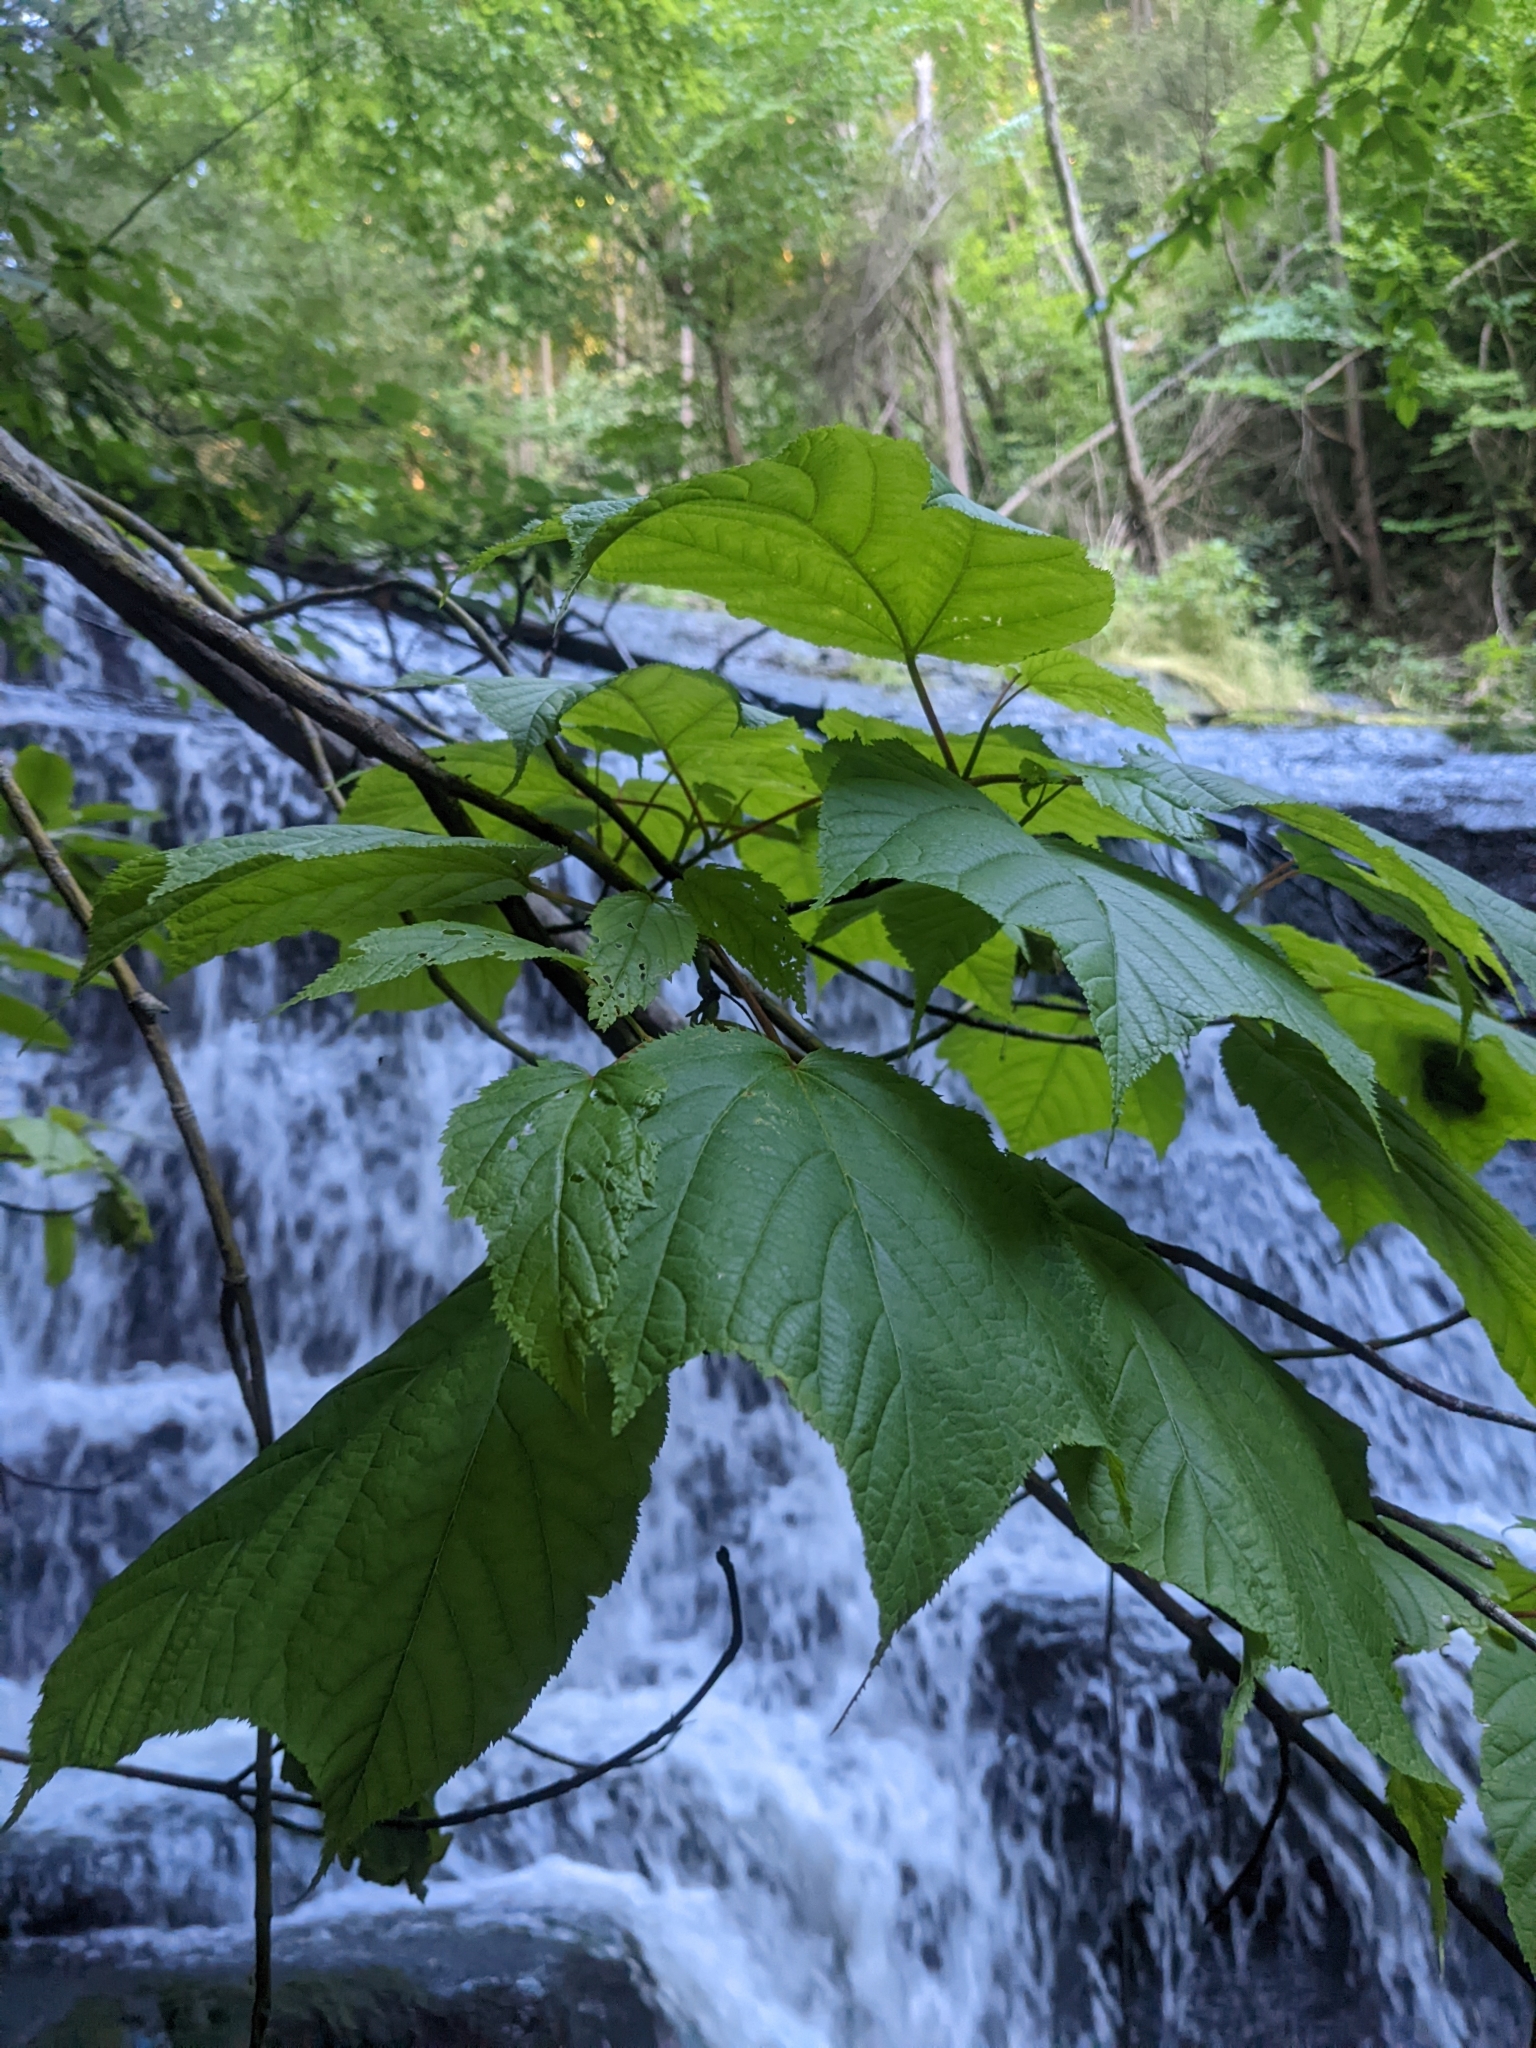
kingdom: Plantae
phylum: Tracheophyta
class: Magnoliopsida
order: Sapindales
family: Sapindaceae
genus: Acer
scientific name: Acer pensylvanicum
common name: Moosewood
